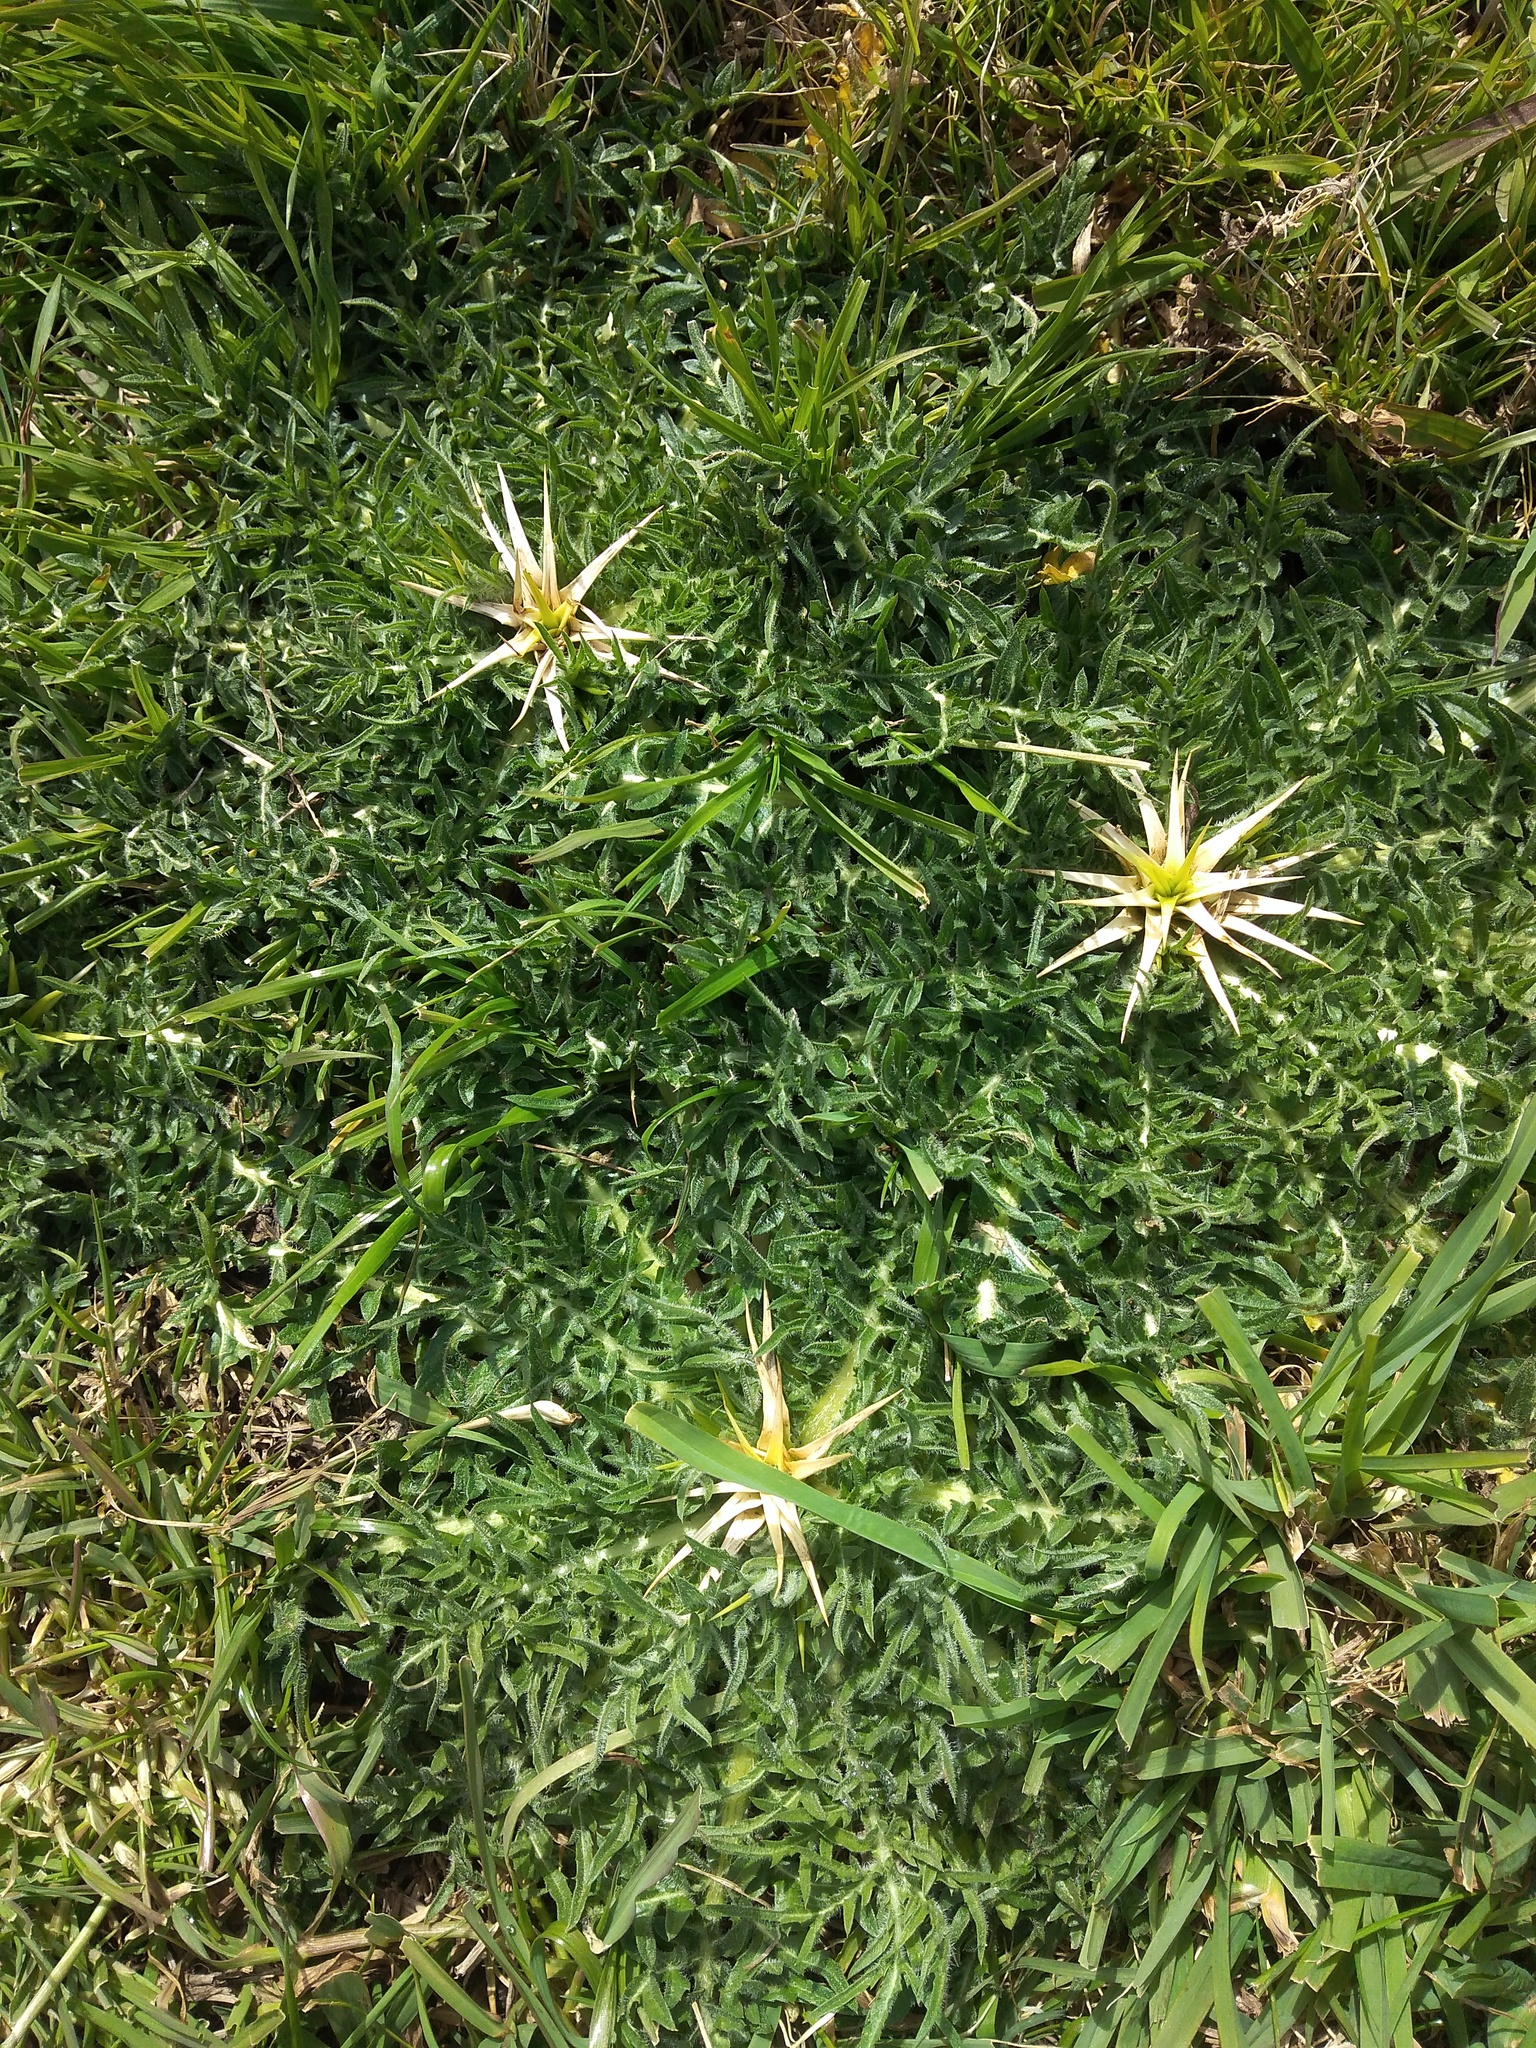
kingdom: Plantae
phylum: Tracheophyta
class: Magnoliopsida
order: Asterales
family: Asteraceae
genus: Centaurea
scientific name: Centaurea calcitrapa
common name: Red star-thistle
